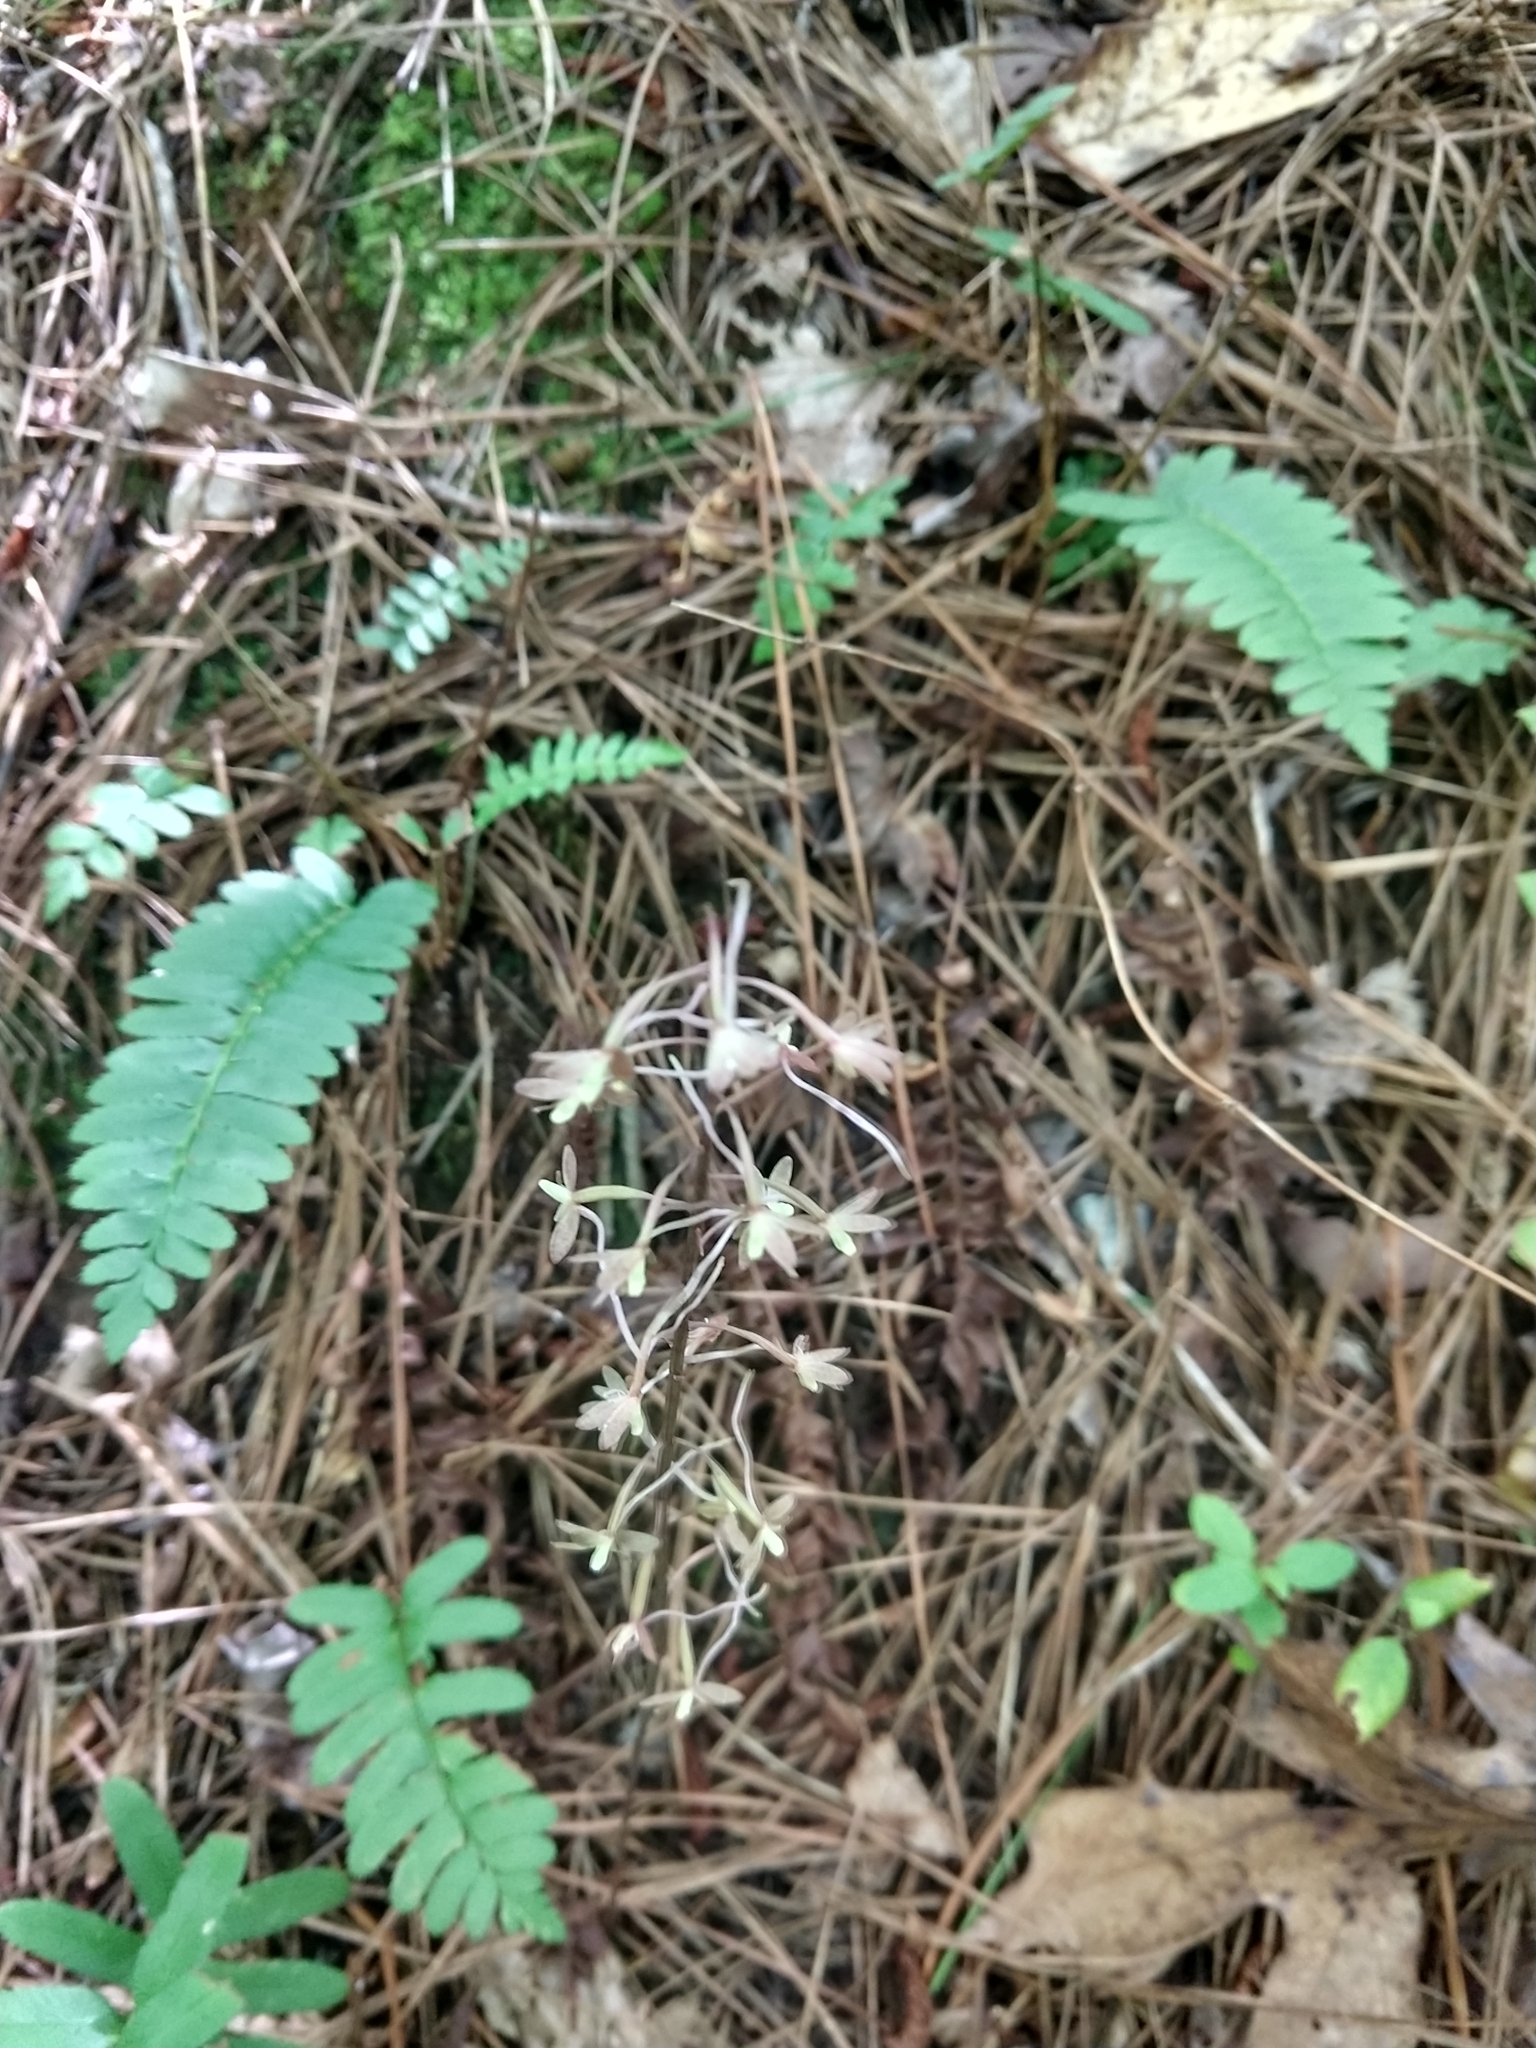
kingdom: Plantae
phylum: Tracheophyta
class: Liliopsida
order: Asparagales
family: Orchidaceae
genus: Tipularia
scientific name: Tipularia discolor
